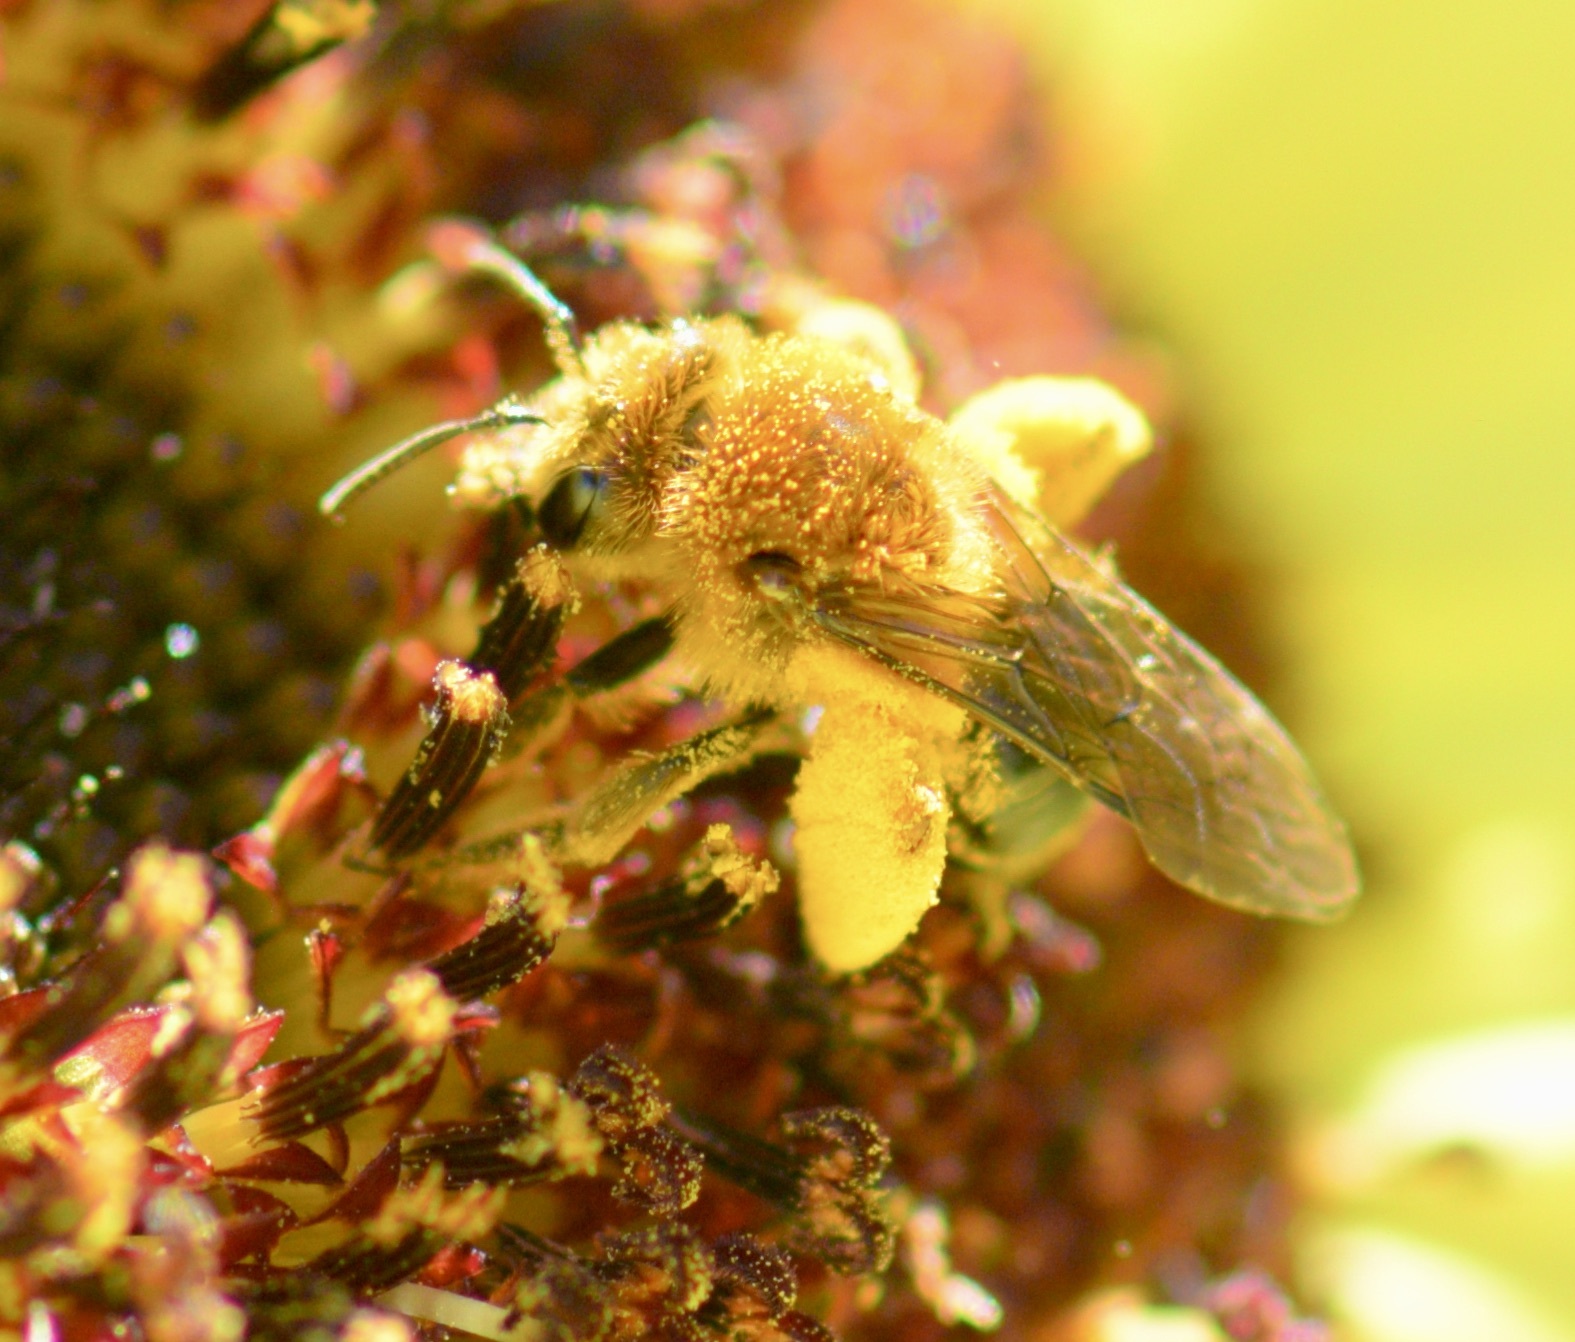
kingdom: Animalia
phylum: Arthropoda
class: Insecta
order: Hymenoptera
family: Andrenidae
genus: Andrena
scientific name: Andrena helianthi
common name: Sunflower mining bee
